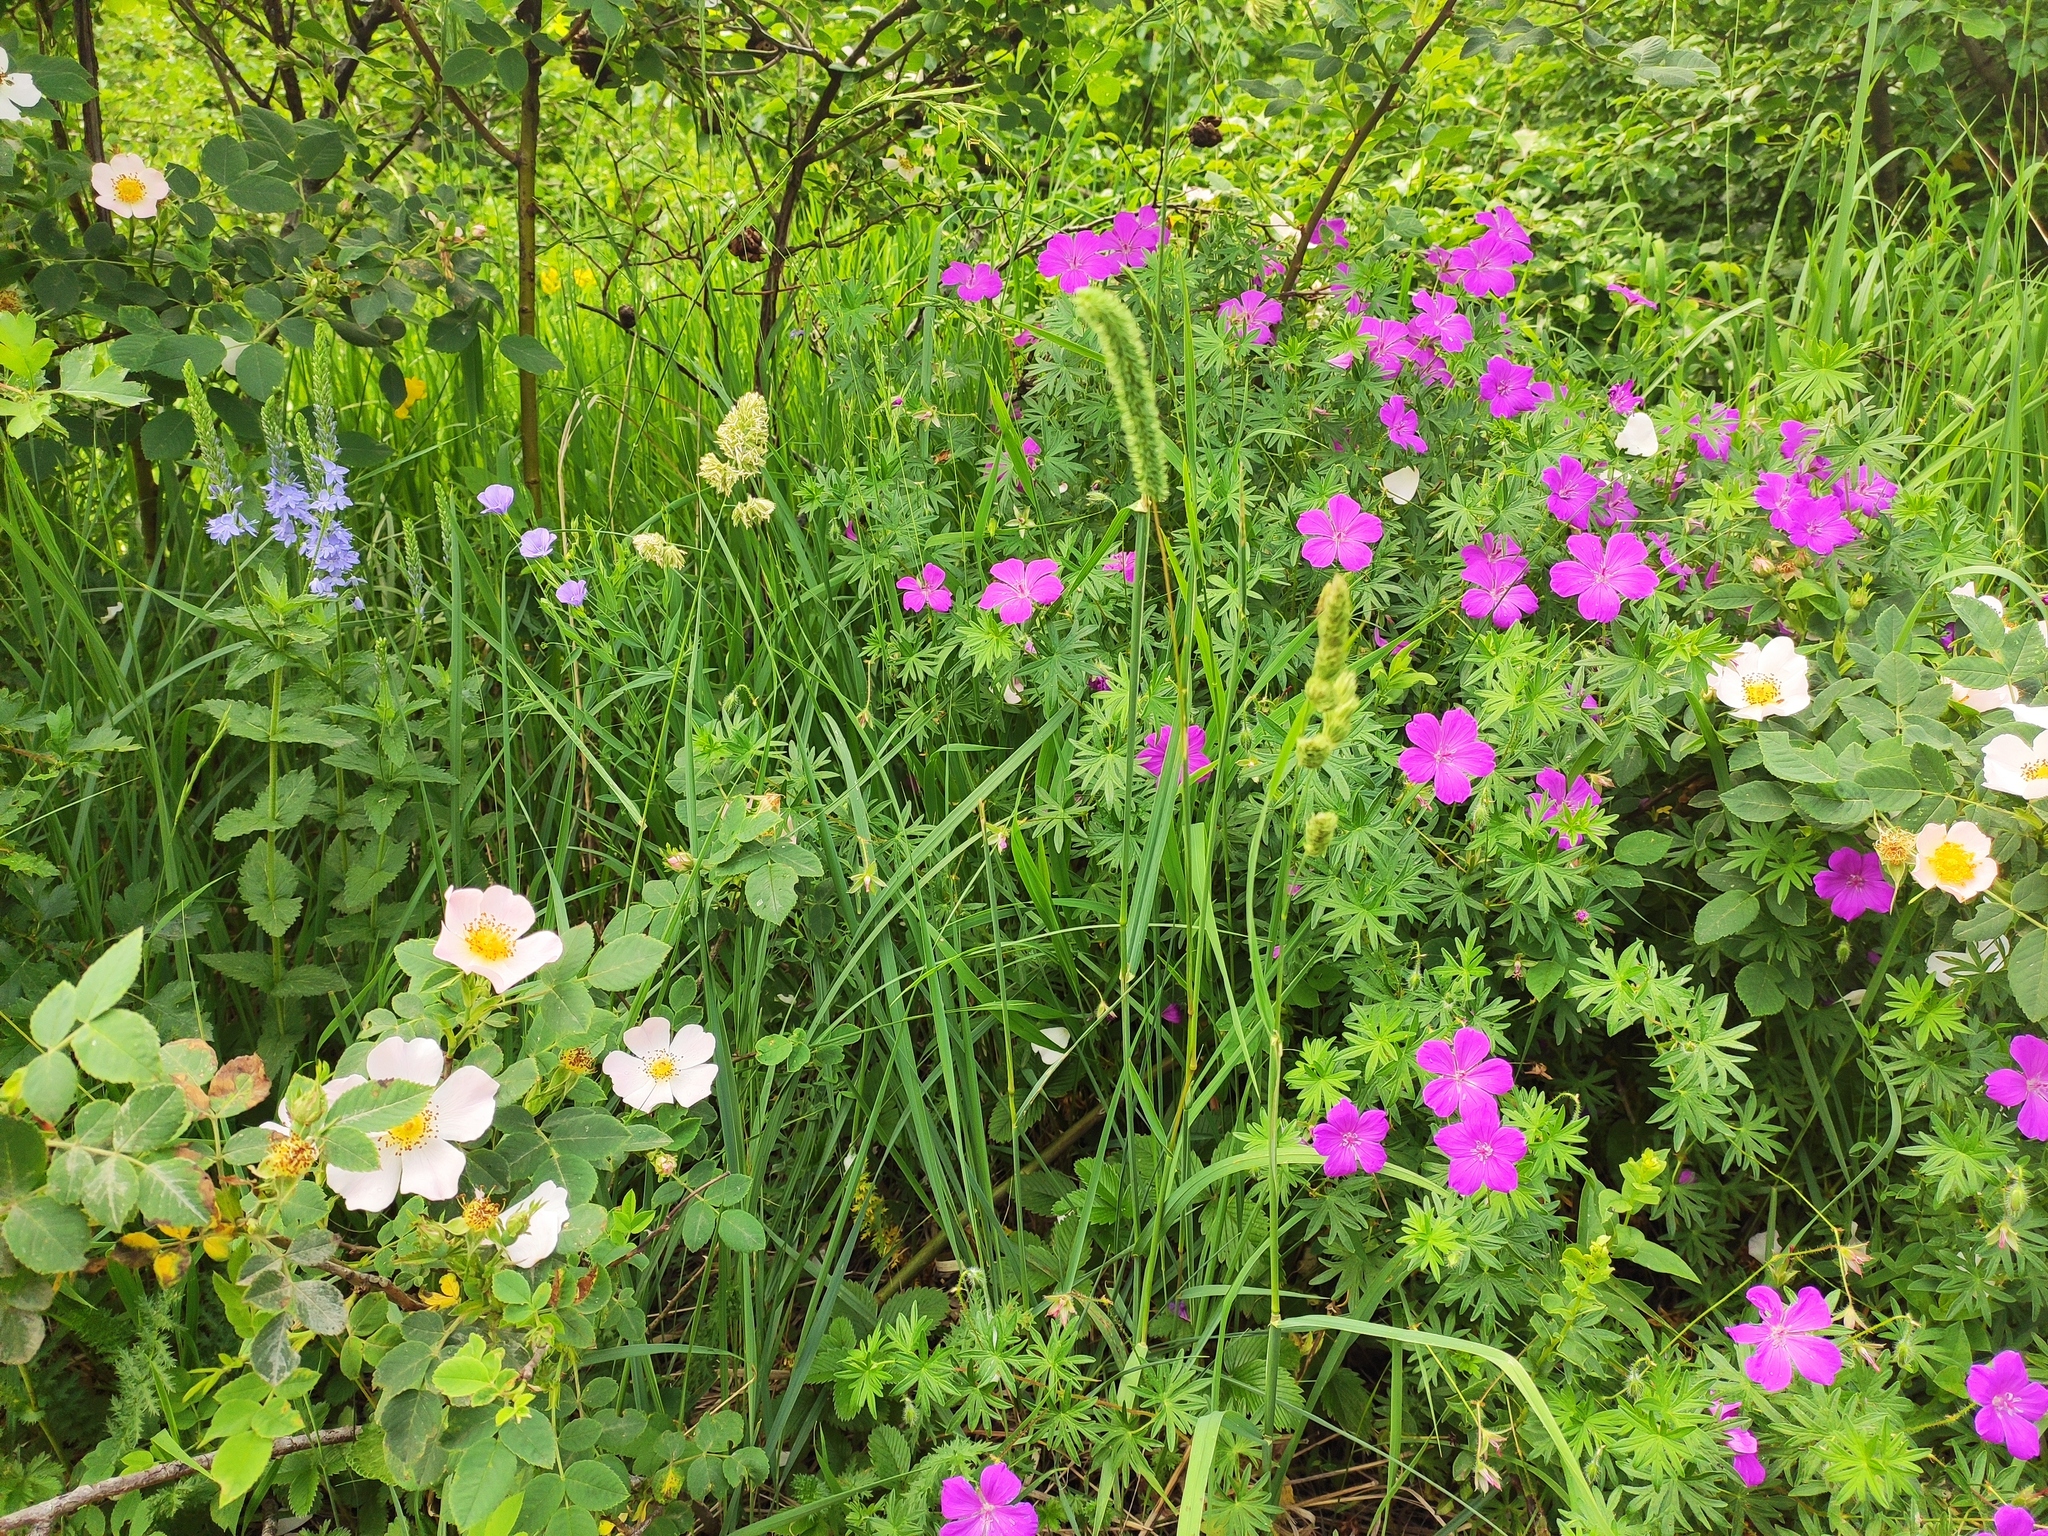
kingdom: Plantae
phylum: Tracheophyta
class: Magnoliopsida
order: Geraniales
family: Geraniaceae
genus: Geranium
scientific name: Geranium sanguineum
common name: Bloody crane's-bill
